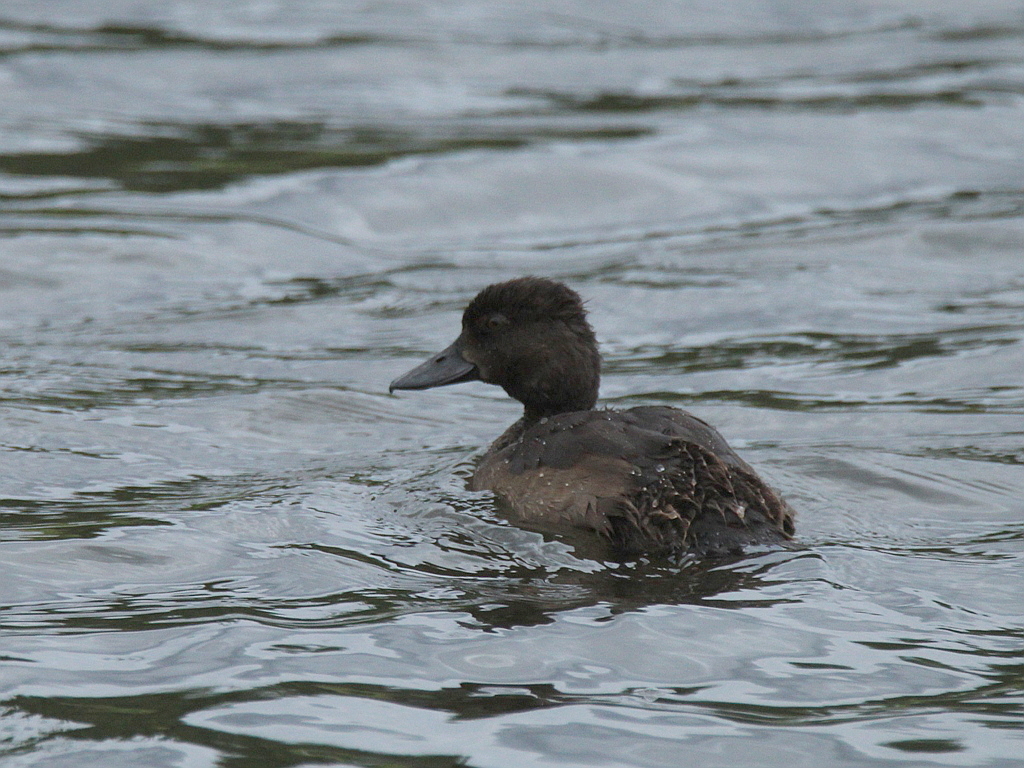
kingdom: Animalia
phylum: Chordata
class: Aves
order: Anseriformes
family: Anatidae
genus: Aythya
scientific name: Aythya fuligula
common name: Tufted duck
